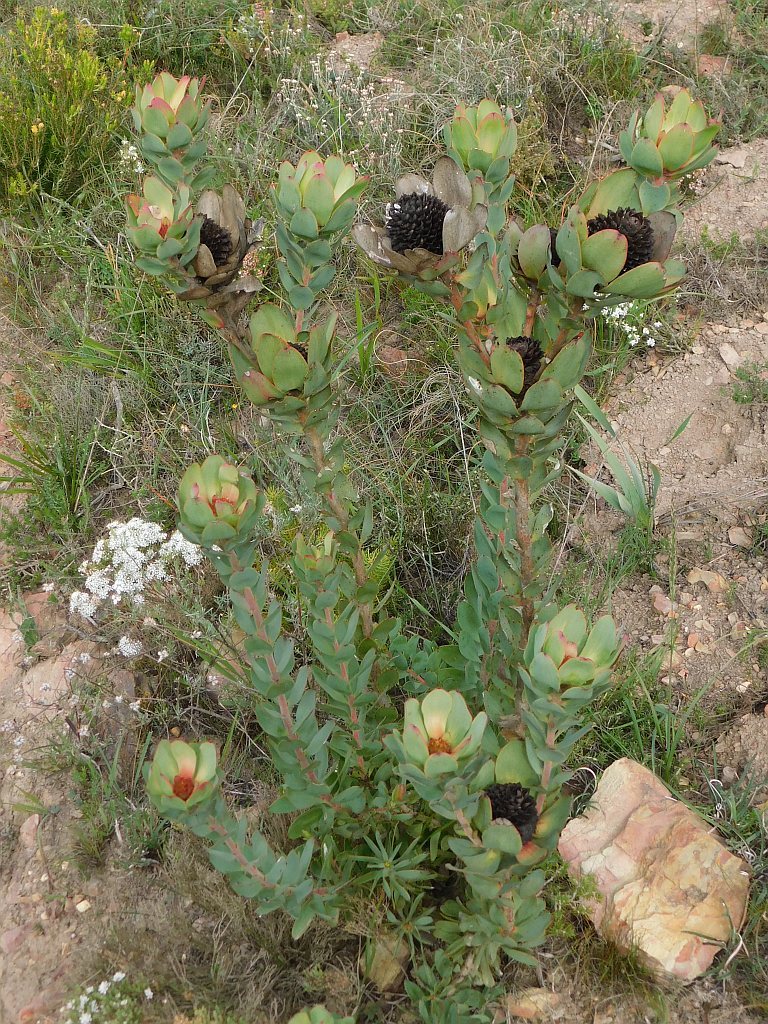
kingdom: Plantae
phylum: Tracheophyta
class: Magnoliopsida
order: Proteales
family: Proteaceae
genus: Leucadendron
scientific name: Leucadendron elimense
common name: Elim conebush
